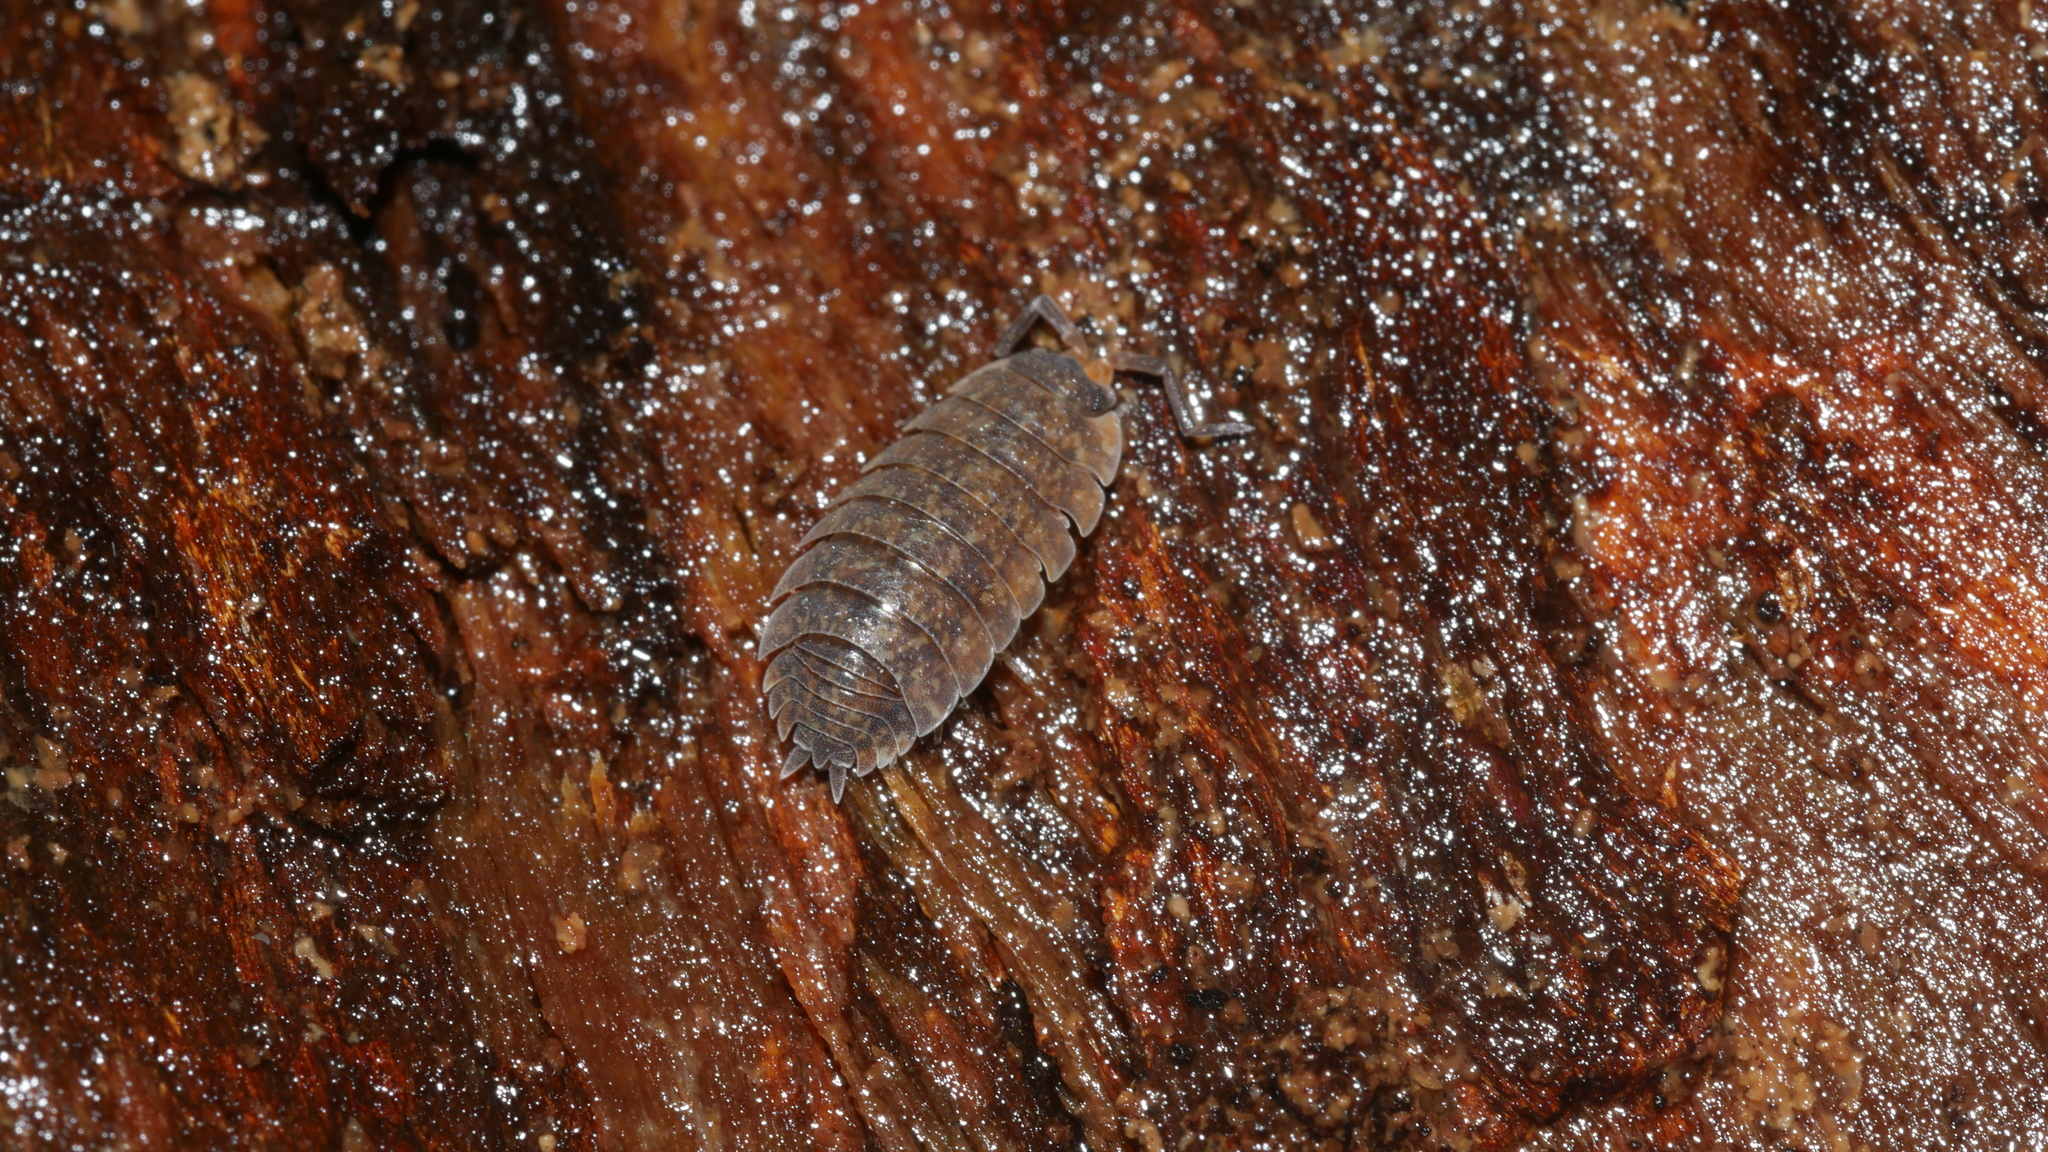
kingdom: Animalia
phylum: Arthropoda
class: Malacostraca
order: Isopoda
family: Porcellionidae
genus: Porcellio
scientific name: Porcellio scaber
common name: Common rough woodlouse
